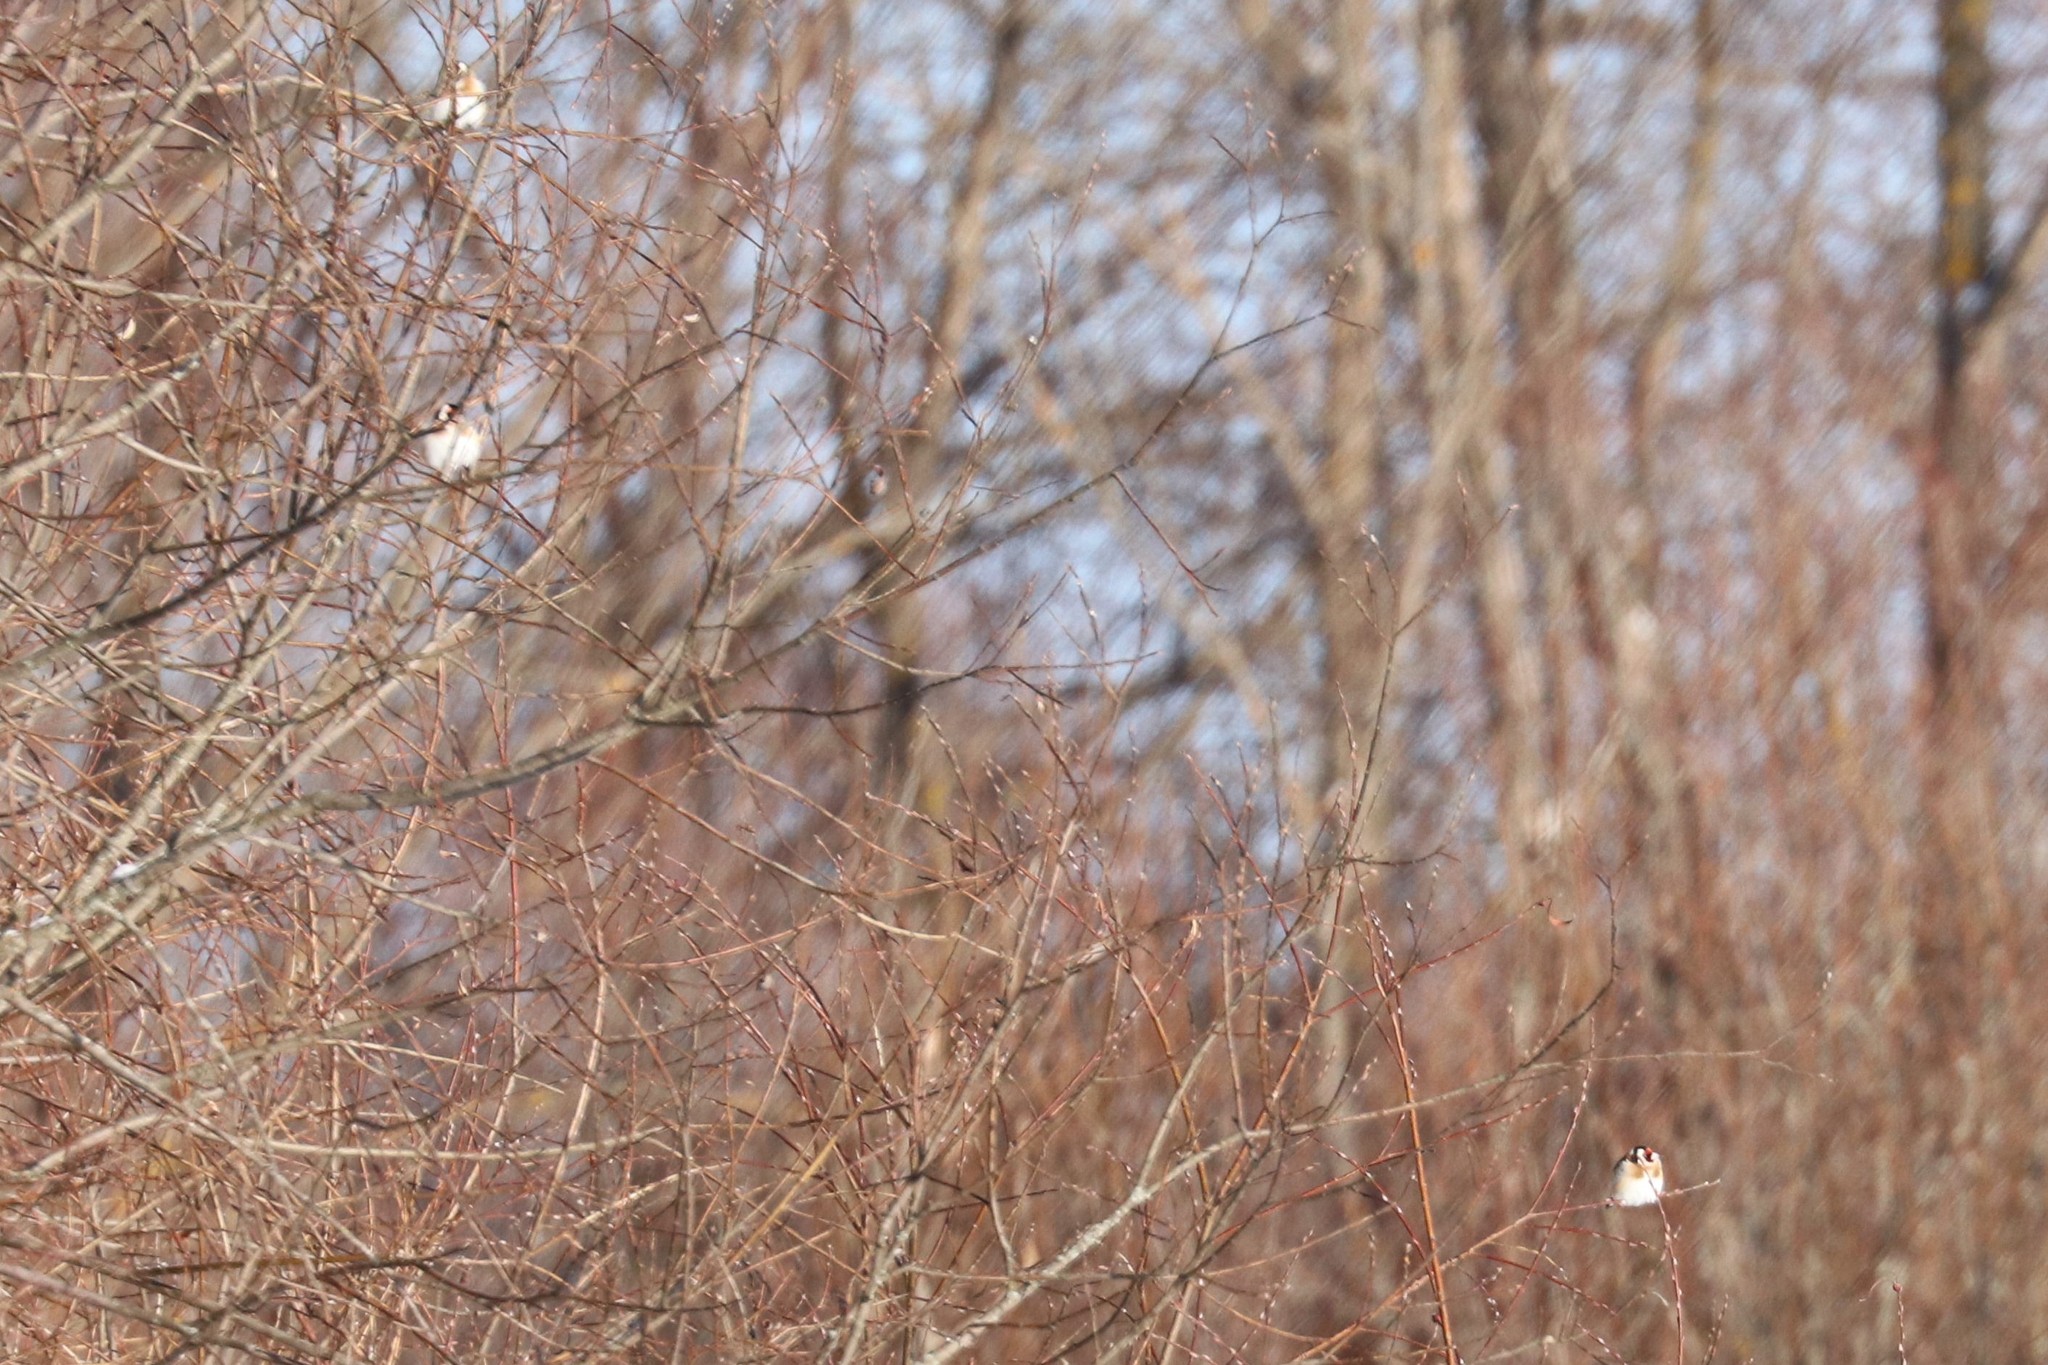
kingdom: Animalia
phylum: Chordata
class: Aves
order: Passeriformes
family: Fringillidae
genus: Carduelis
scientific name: Carduelis carduelis
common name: European goldfinch
